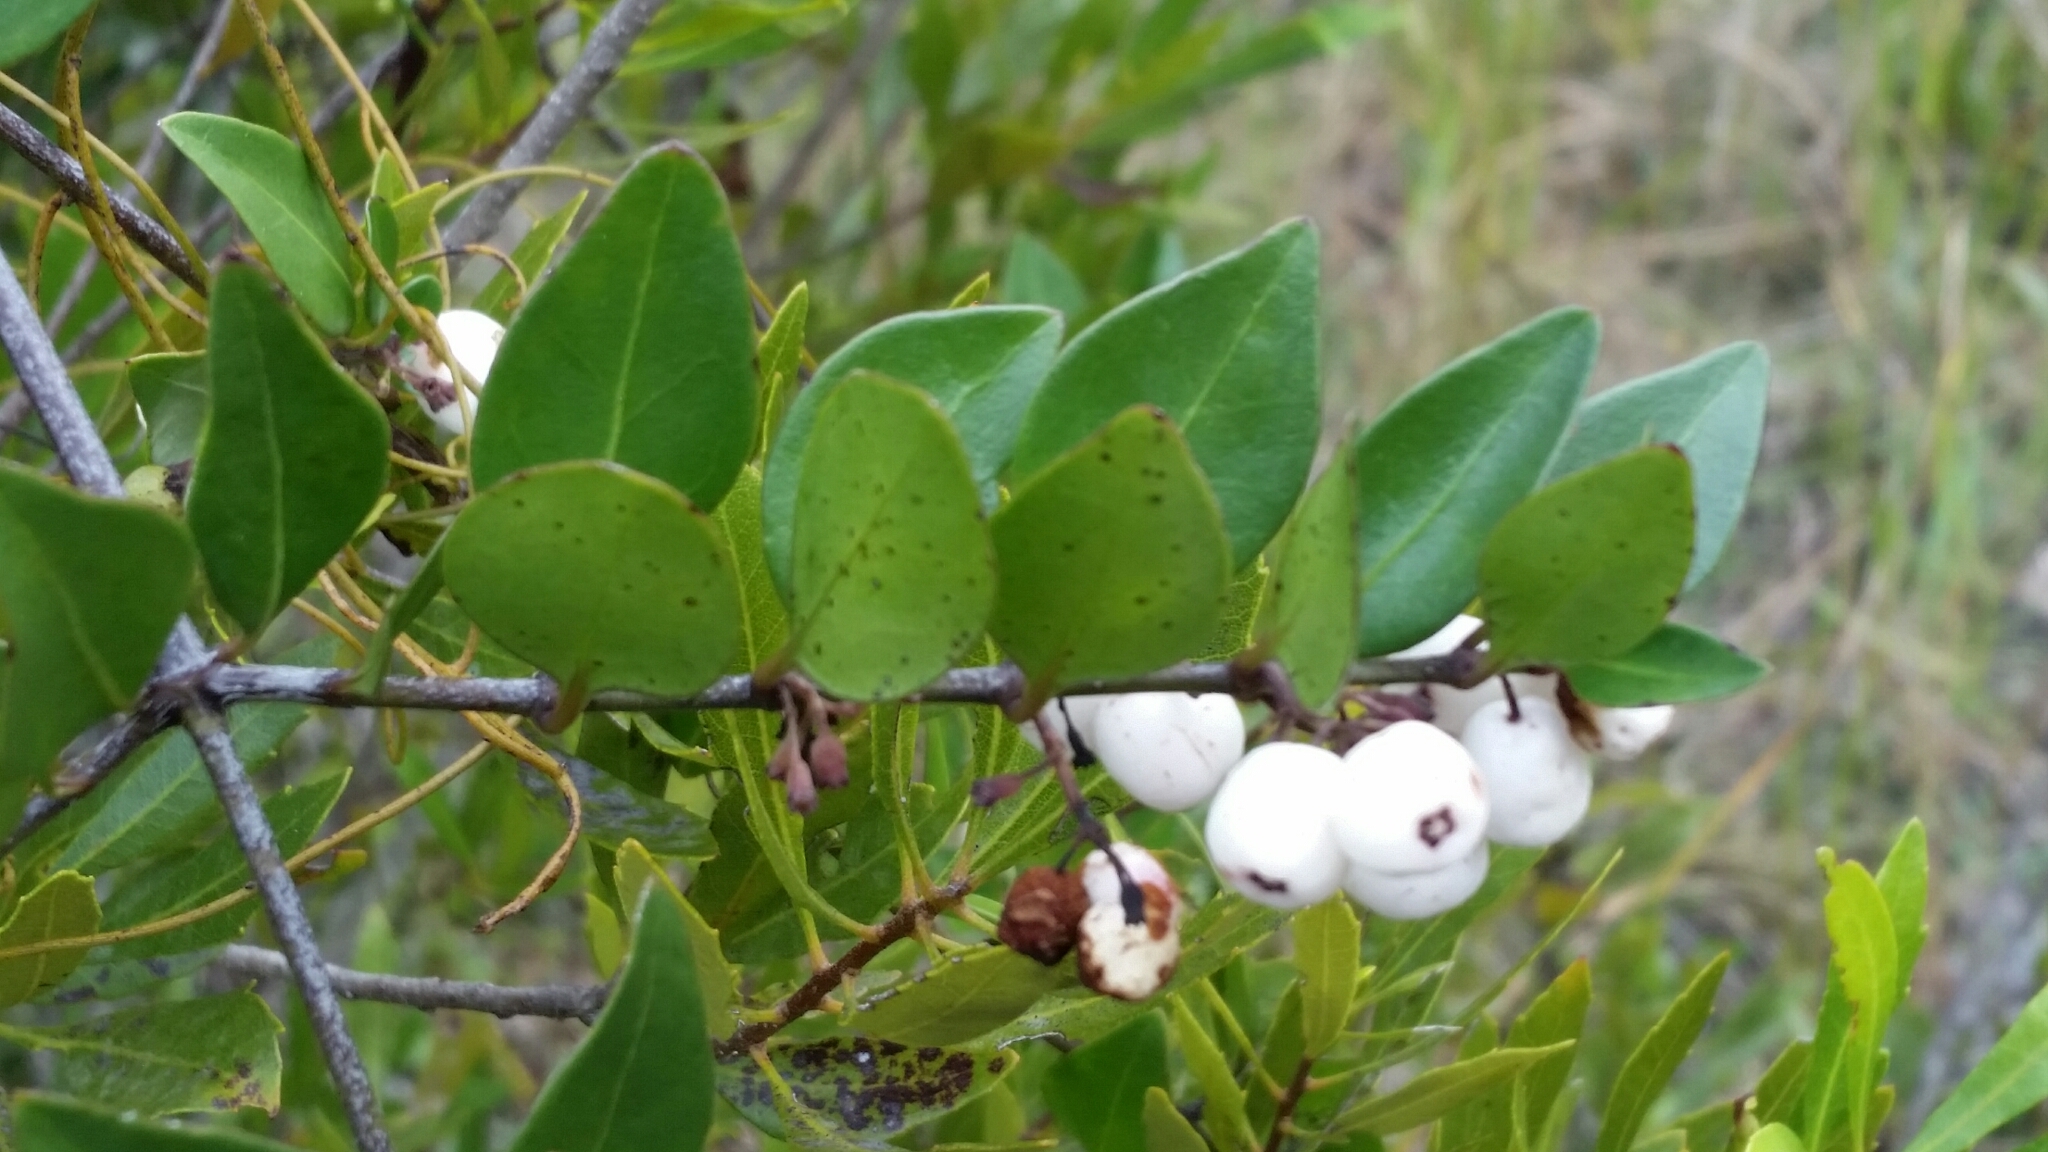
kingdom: Plantae
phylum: Tracheophyta
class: Magnoliopsida
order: Gentianales
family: Rubiaceae
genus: Chiococca
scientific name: Chiococca alba
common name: Snowberry
